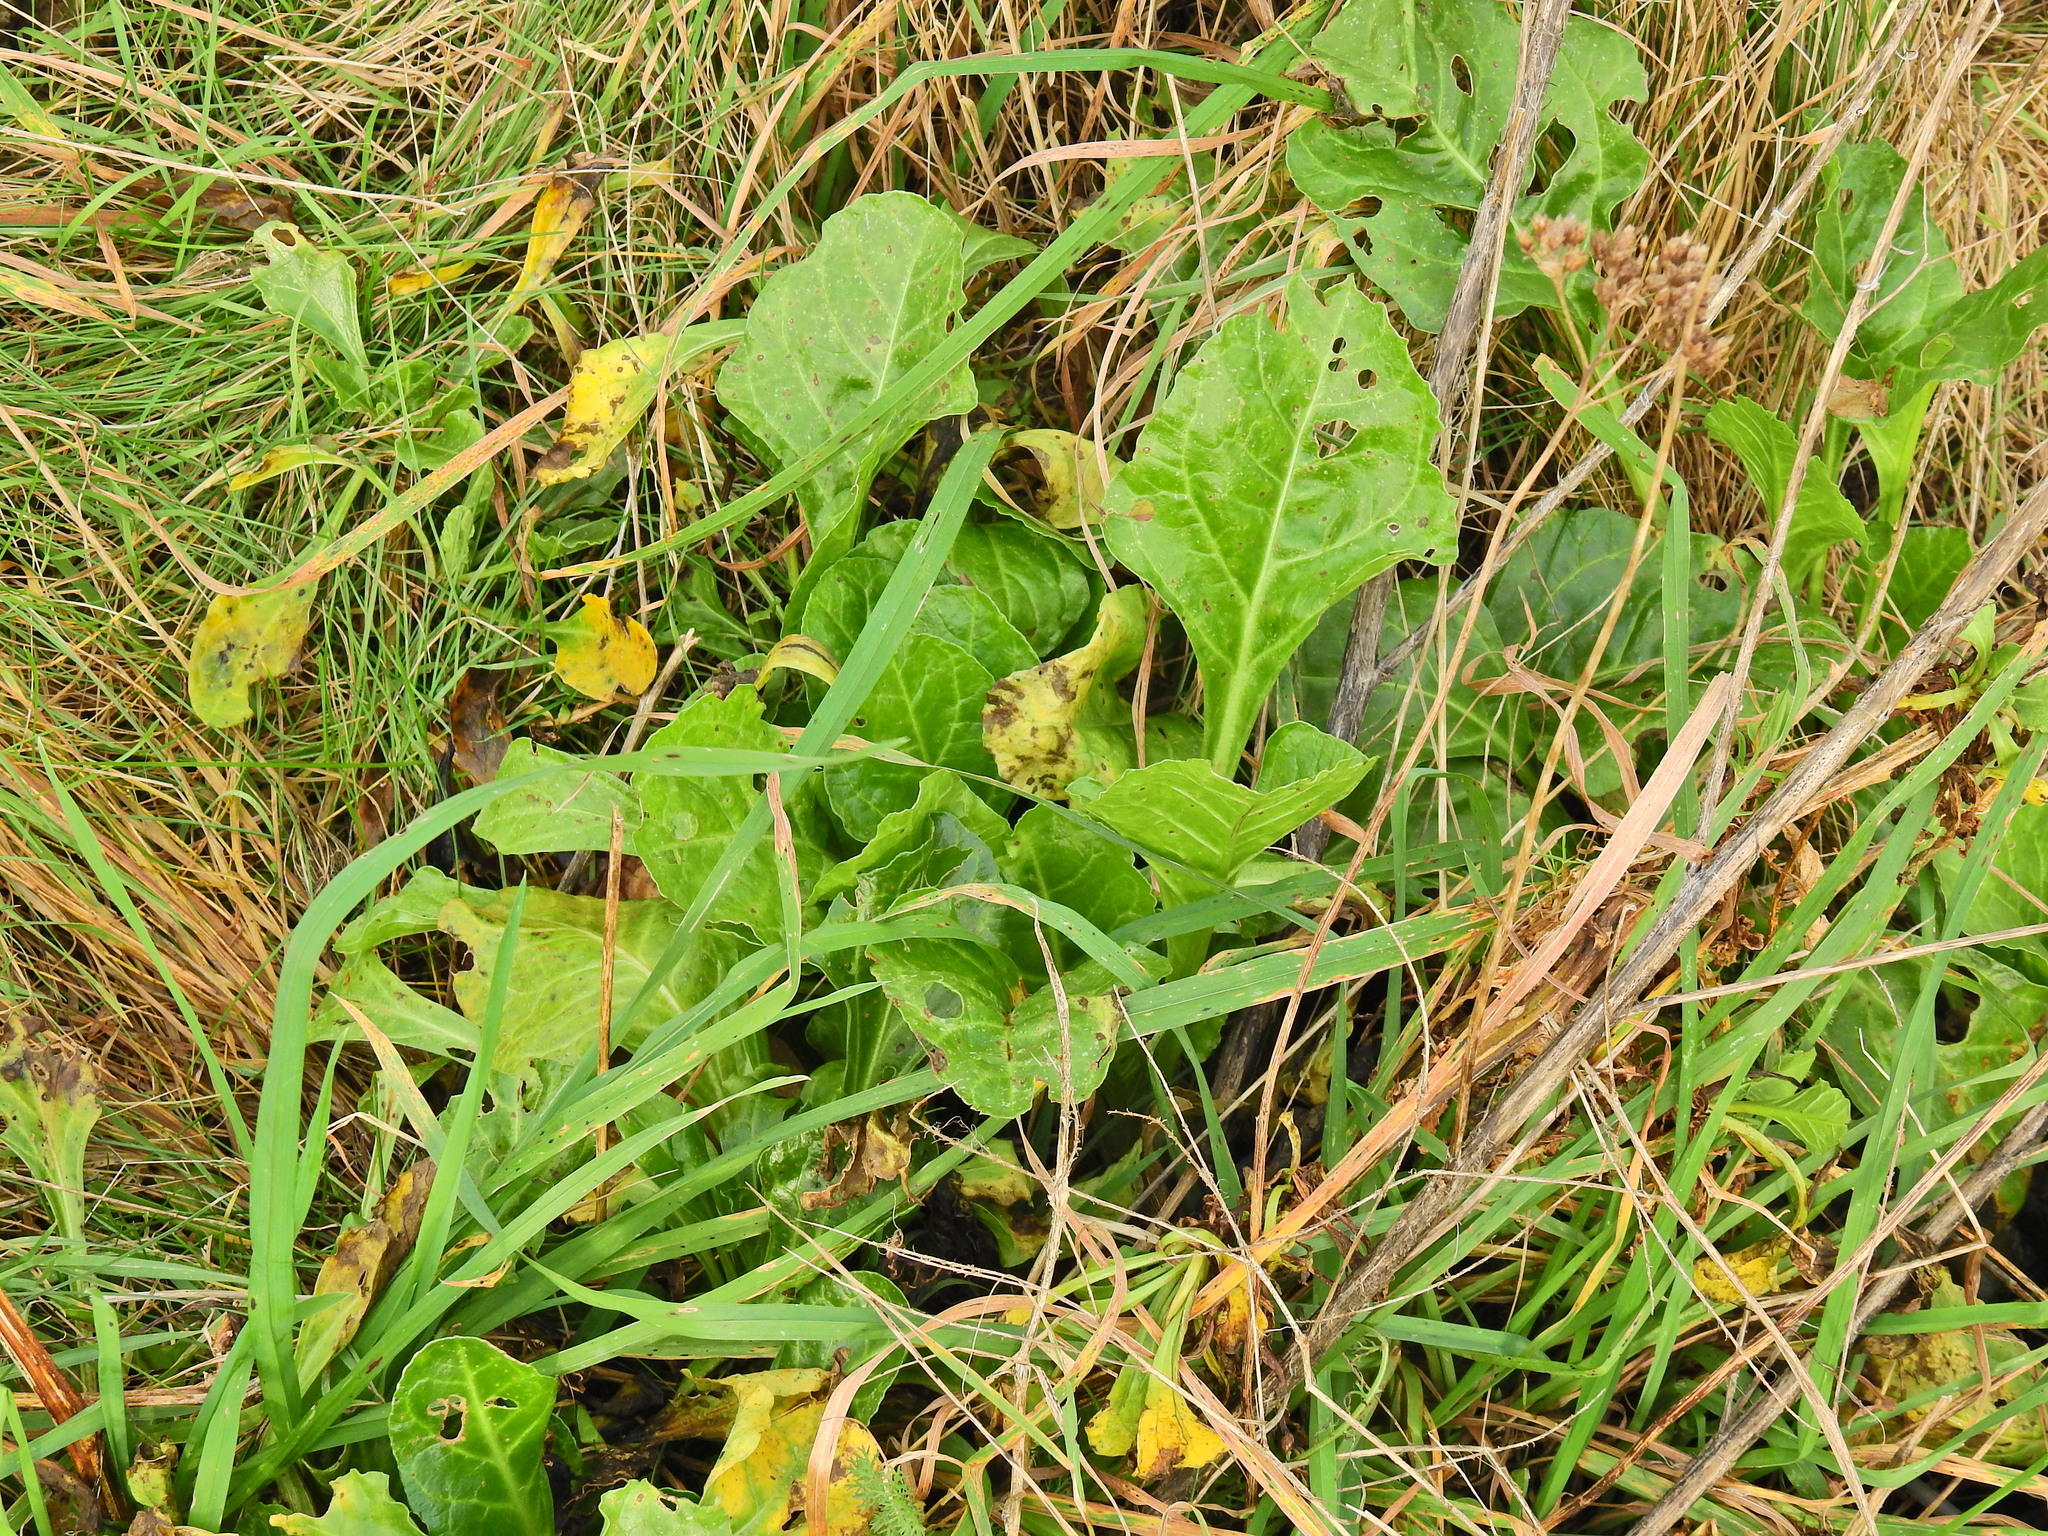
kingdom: Plantae
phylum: Tracheophyta
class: Magnoliopsida
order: Caryophyllales
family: Amaranthaceae
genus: Beta
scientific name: Beta vulgaris
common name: Beet
